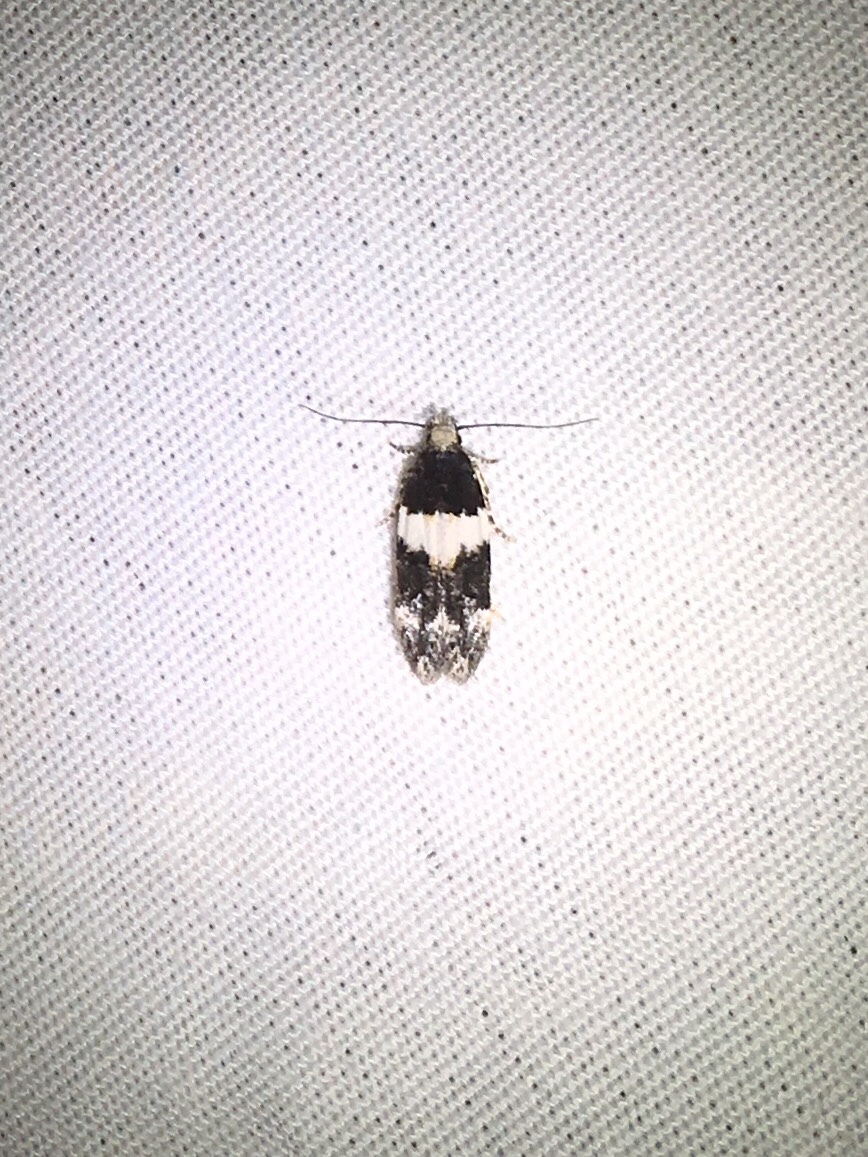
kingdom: Animalia
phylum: Arthropoda
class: Insecta
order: Lepidoptera
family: Gelechiidae
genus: Pubitelphusa
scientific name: Pubitelphusa latifasciella
